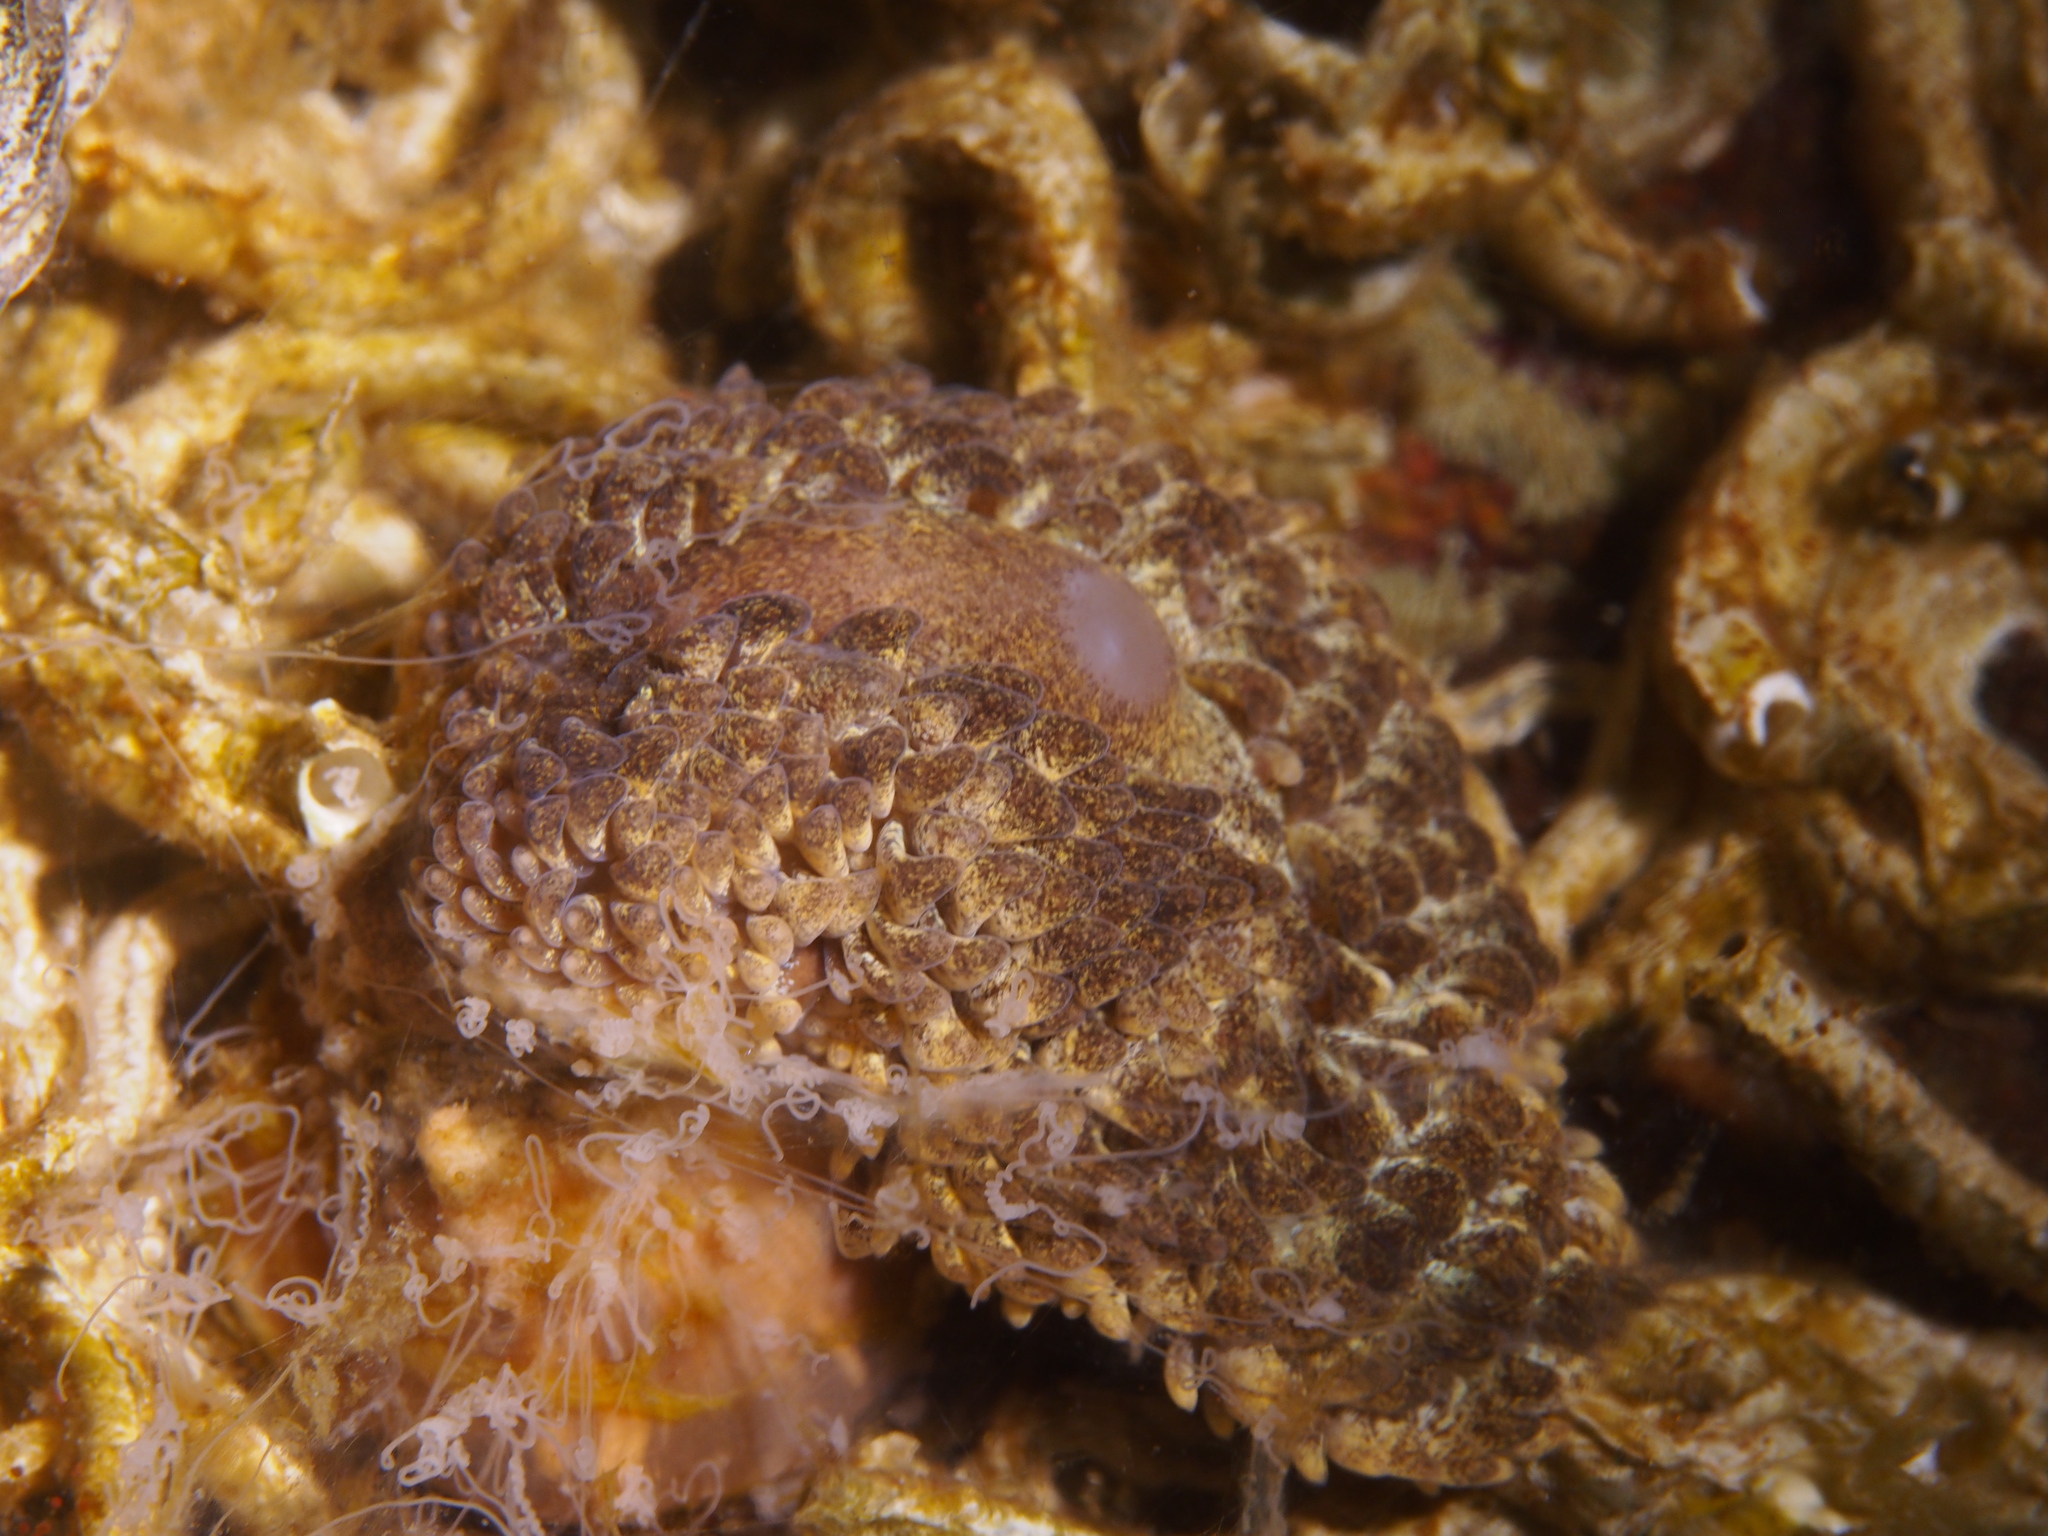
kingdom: Animalia
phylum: Mollusca
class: Gastropoda
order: Nudibranchia
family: Aeolidiidae
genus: Aeolidia
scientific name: Aeolidia papillosa
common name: Common grey sea slug
